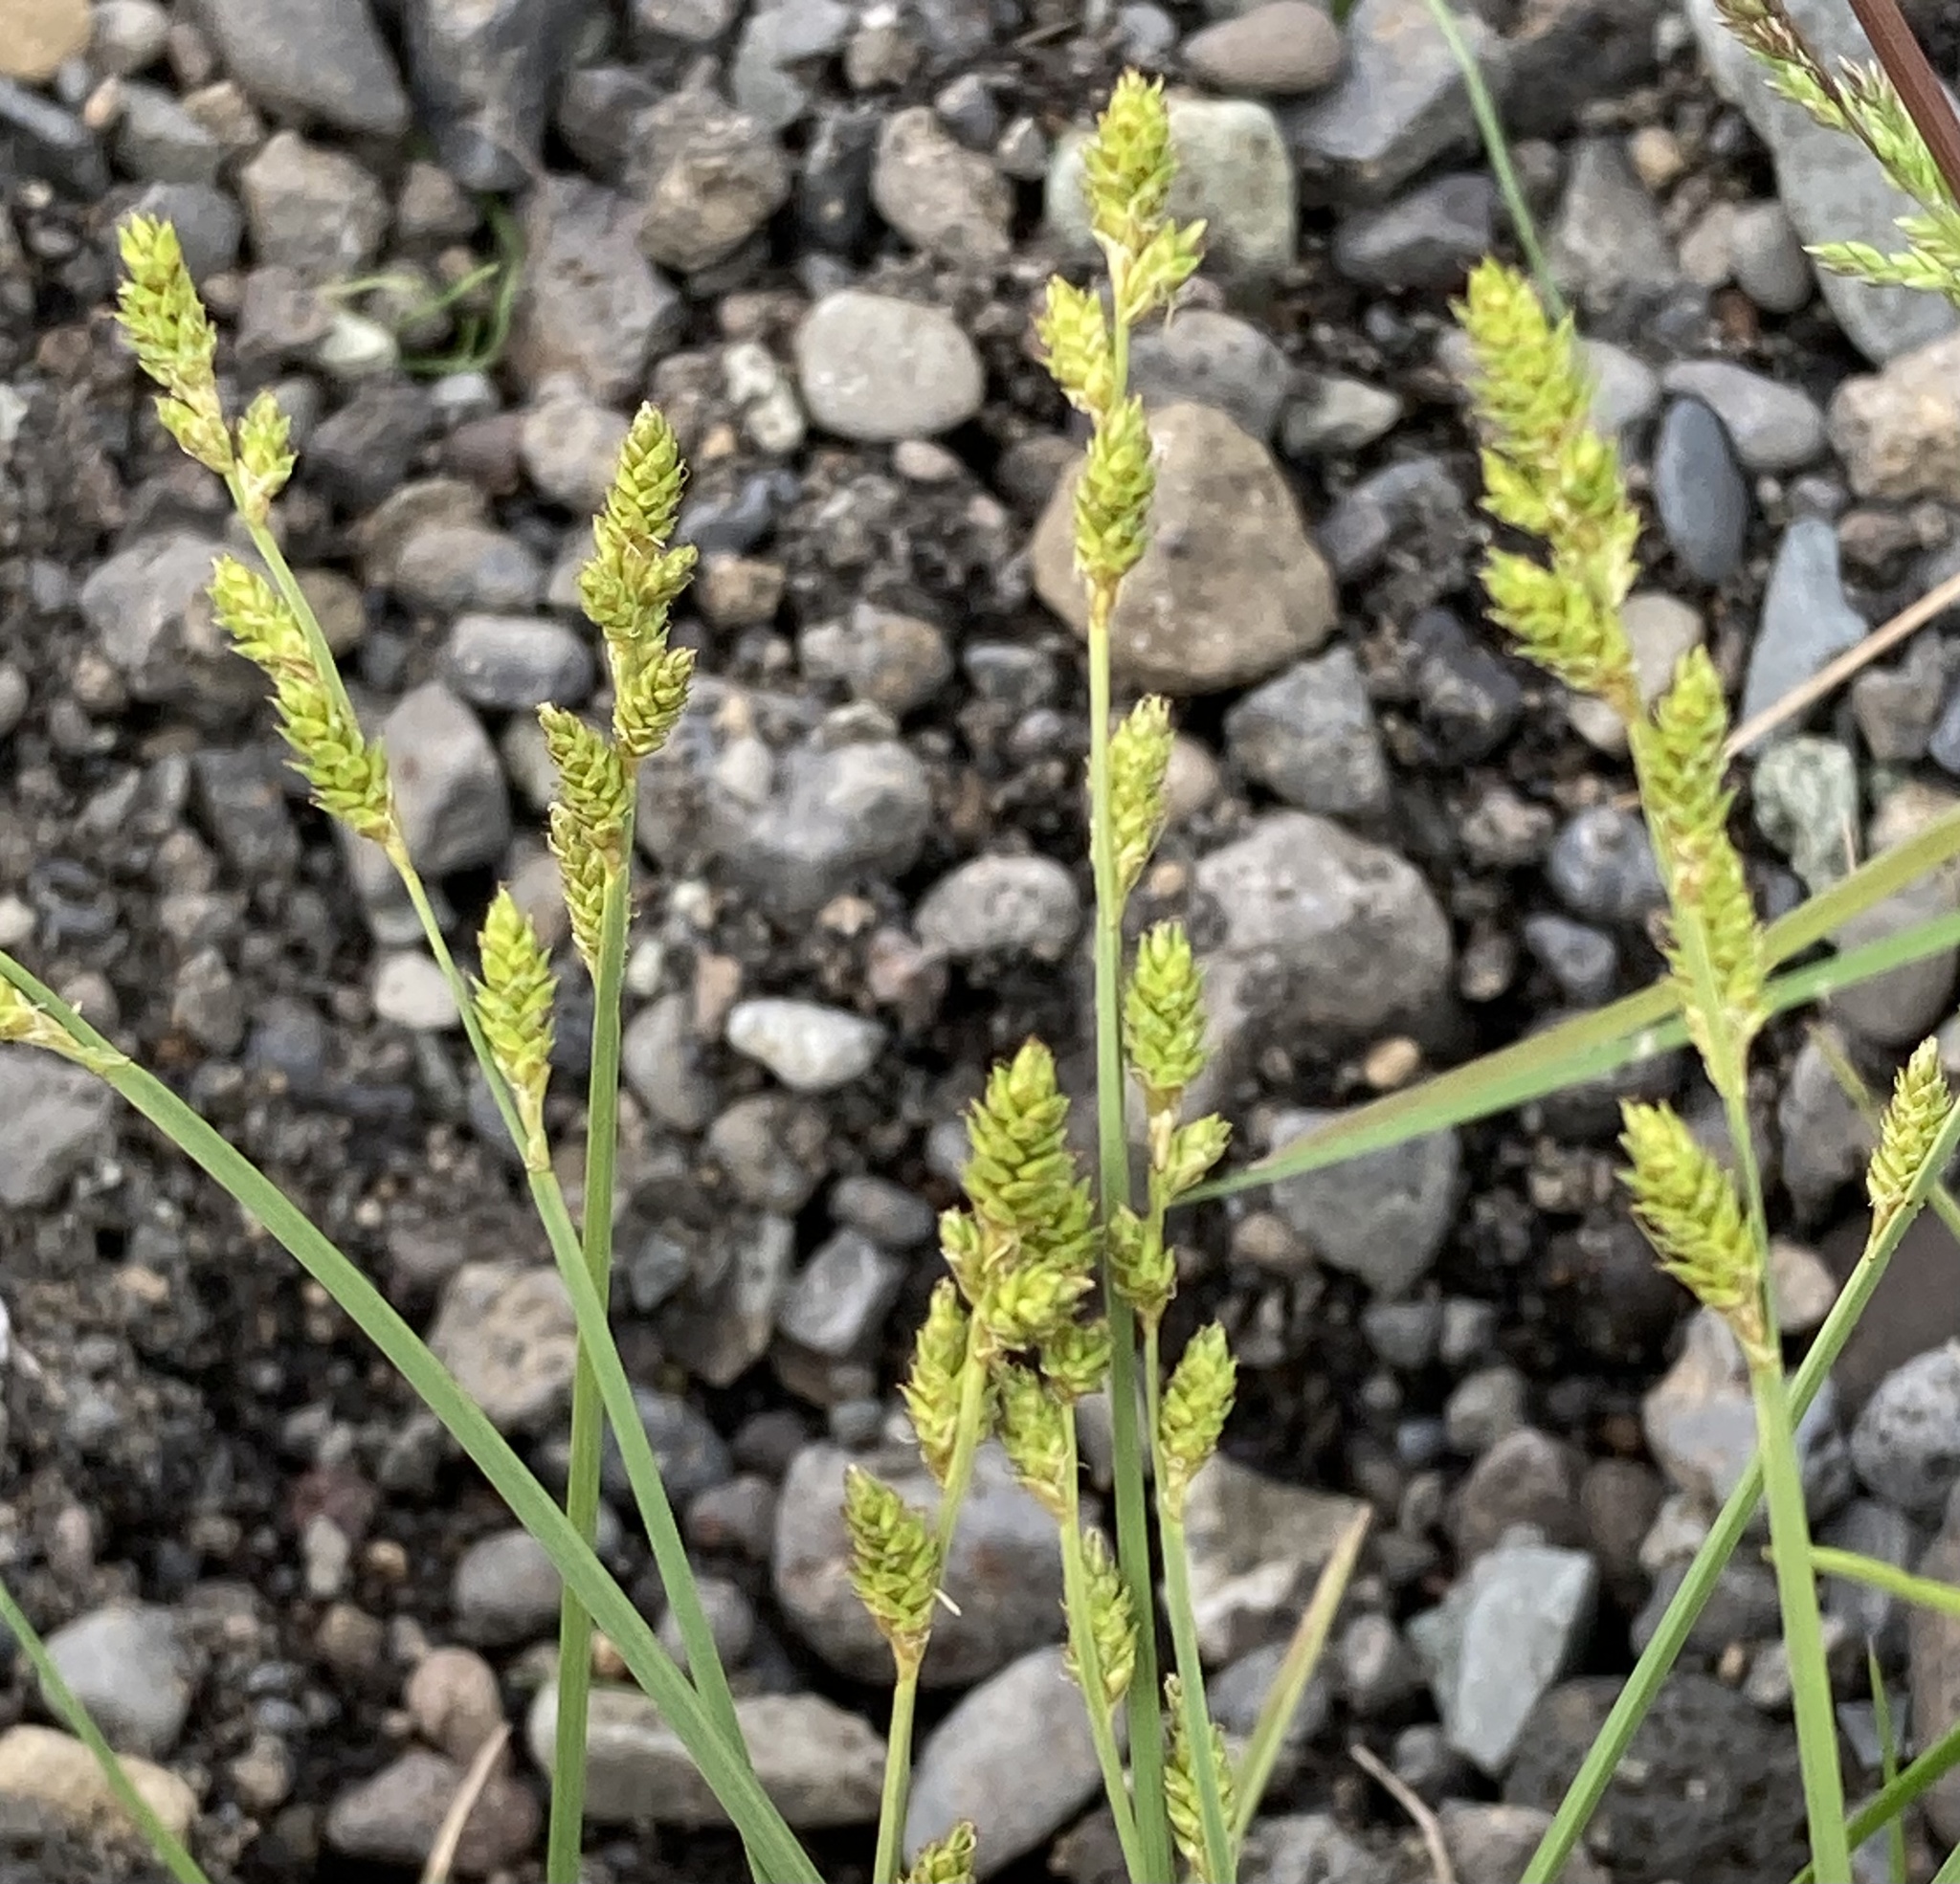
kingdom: Plantae
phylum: Tracheophyta
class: Liliopsida
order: Poales
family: Cyperaceae
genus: Carex
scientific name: Carex canescens
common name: White sedge
